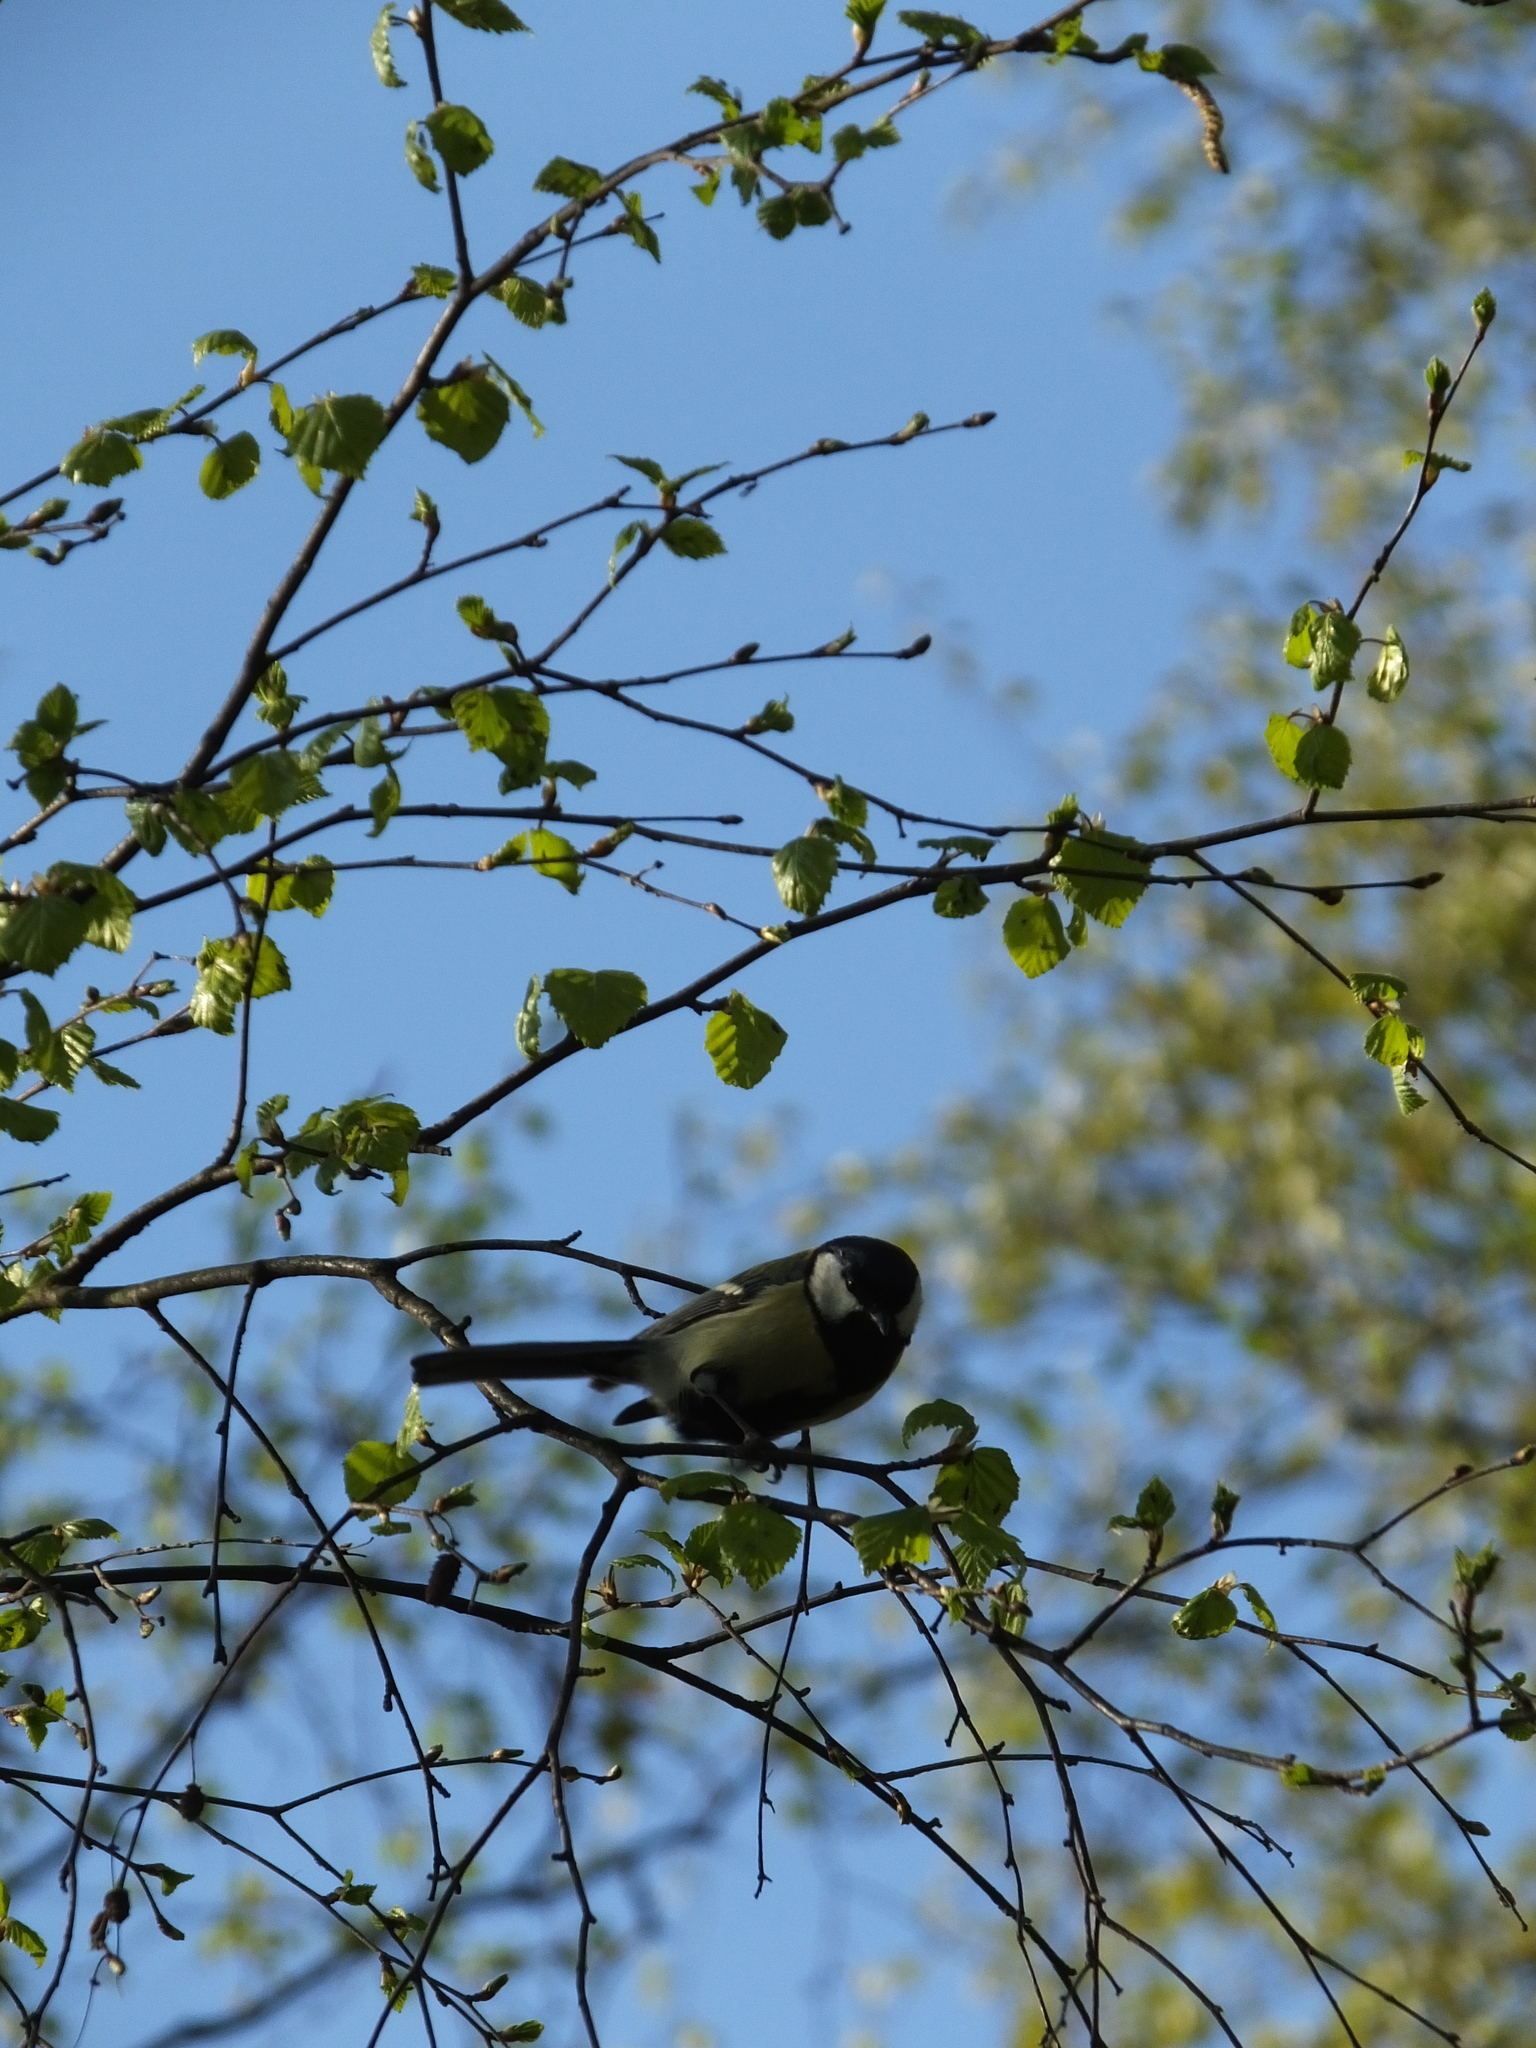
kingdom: Animalia
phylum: Chordata
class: Aves
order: Passeriformes
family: Paridae
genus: Parus
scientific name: Parus major
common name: Great tit
